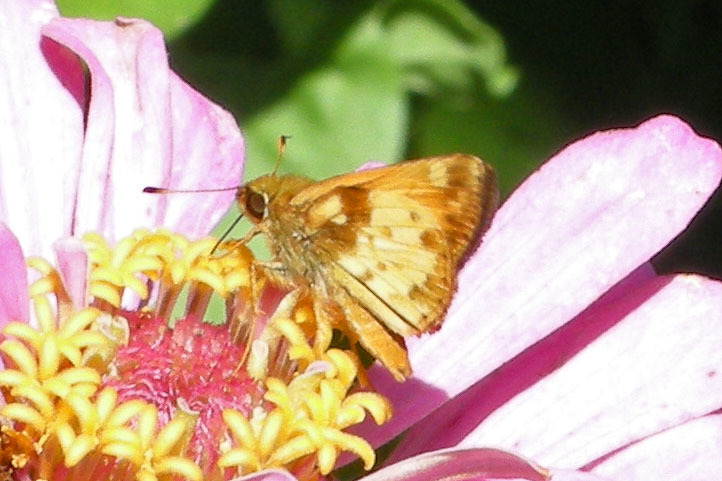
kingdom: Animalia
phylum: Arthropoda
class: Insecta
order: Lepidoptera
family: Hesperiidae
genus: Lon
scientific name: Lon zabulon
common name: Zabulon skipper
